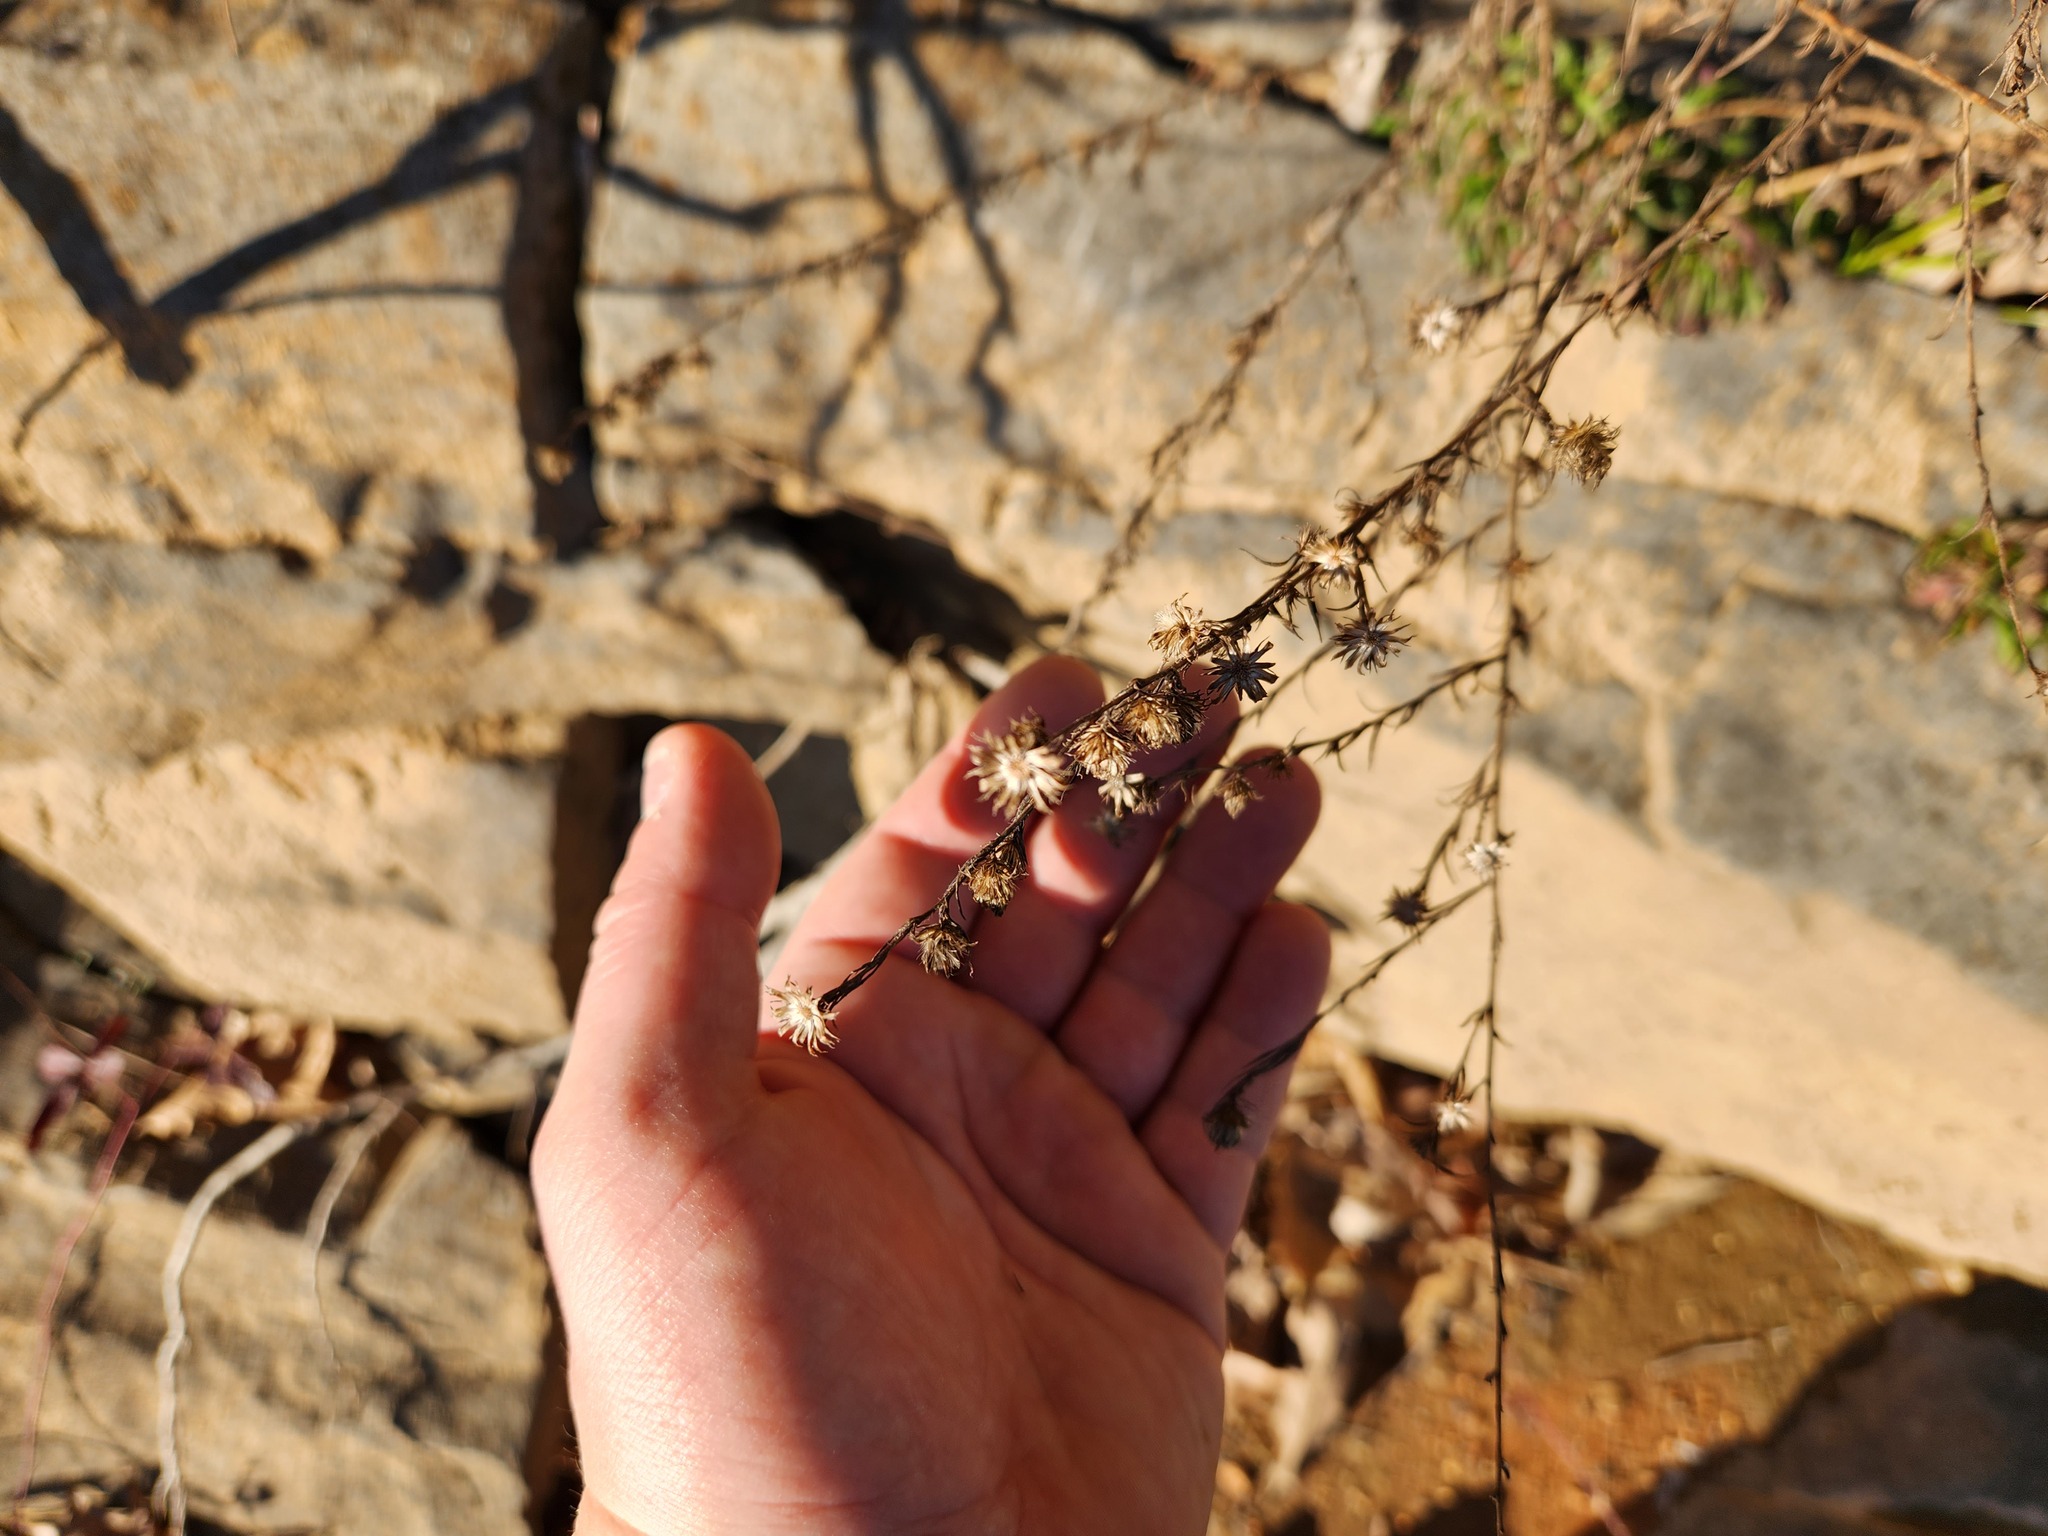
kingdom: Plantae
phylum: Tracheophyta
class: Magnoliopsida
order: Asterales
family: Asteraceae
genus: Symphyotrichum
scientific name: Symphyotrichum kentuckiense
